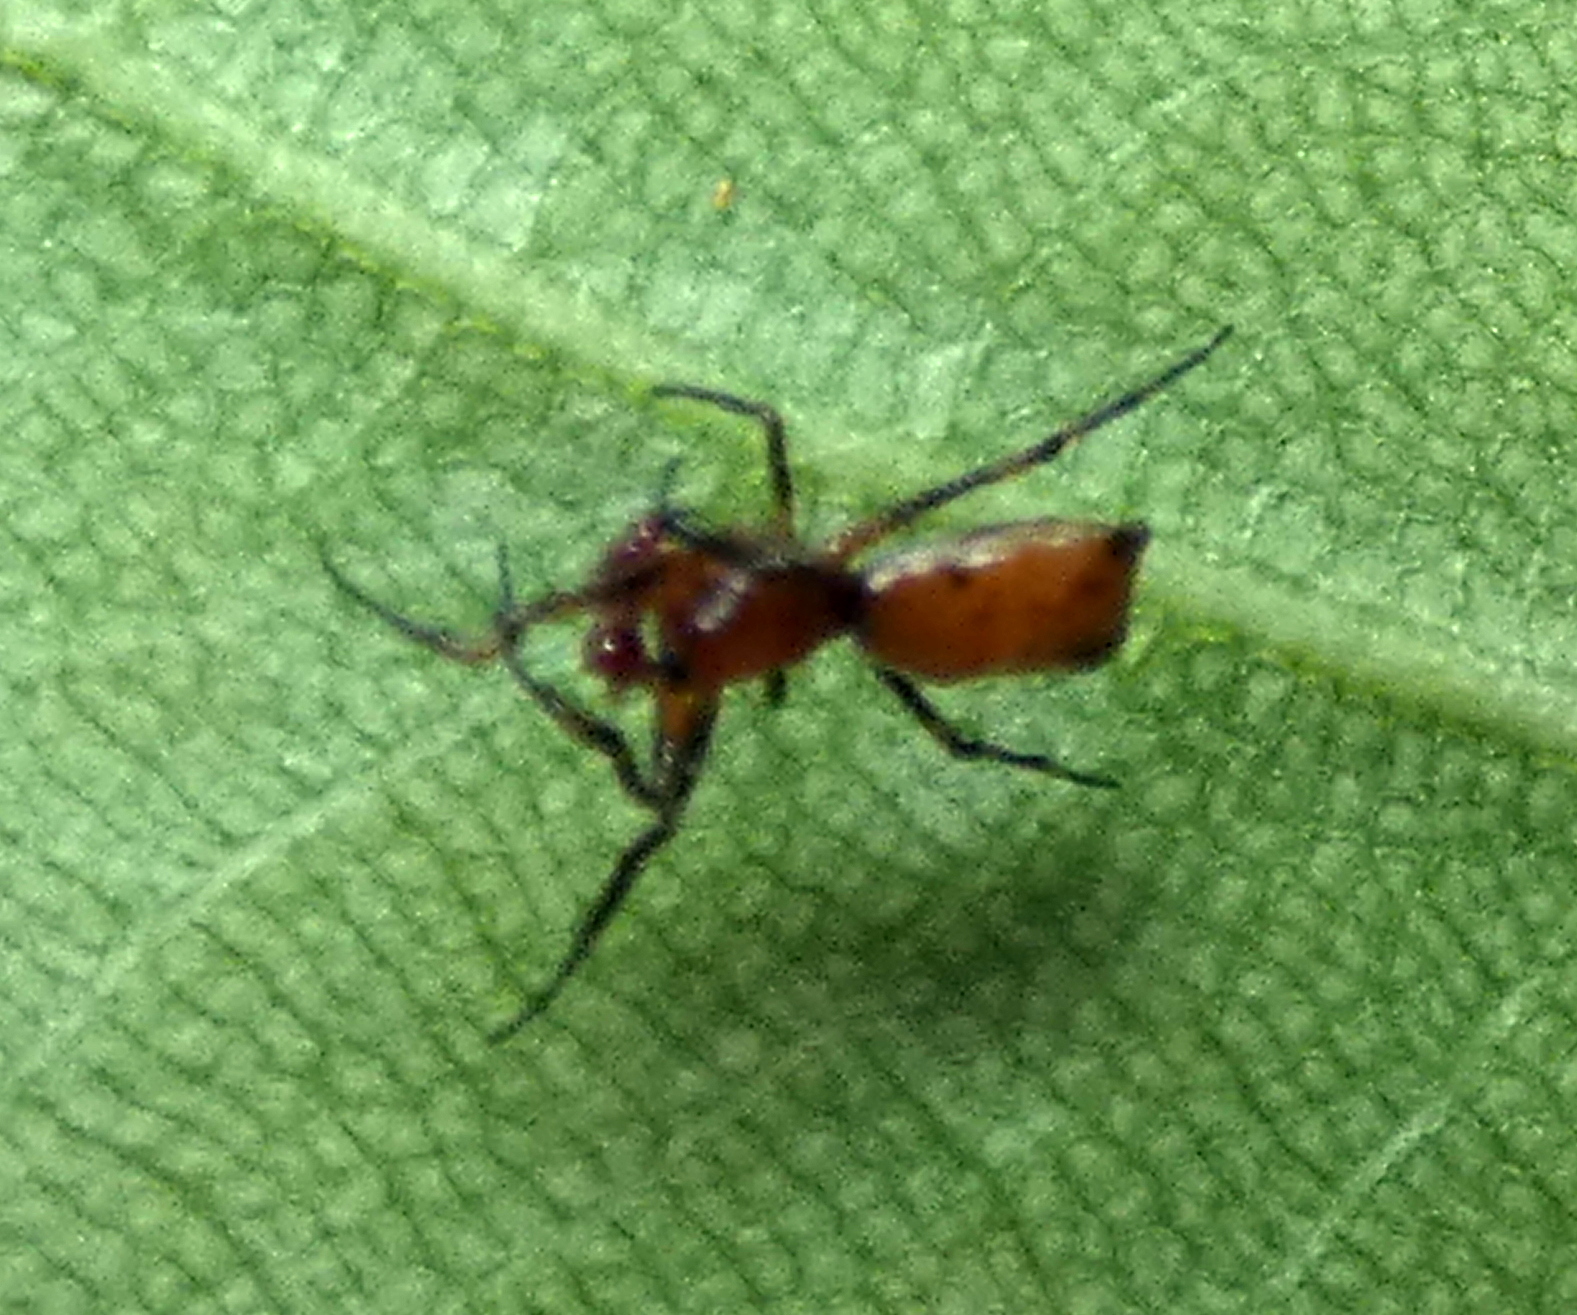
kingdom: Animalia
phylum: Arthropoda
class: Arachnida
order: Araneae
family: Araneidae
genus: Micrathena
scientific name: Micrathena picta
